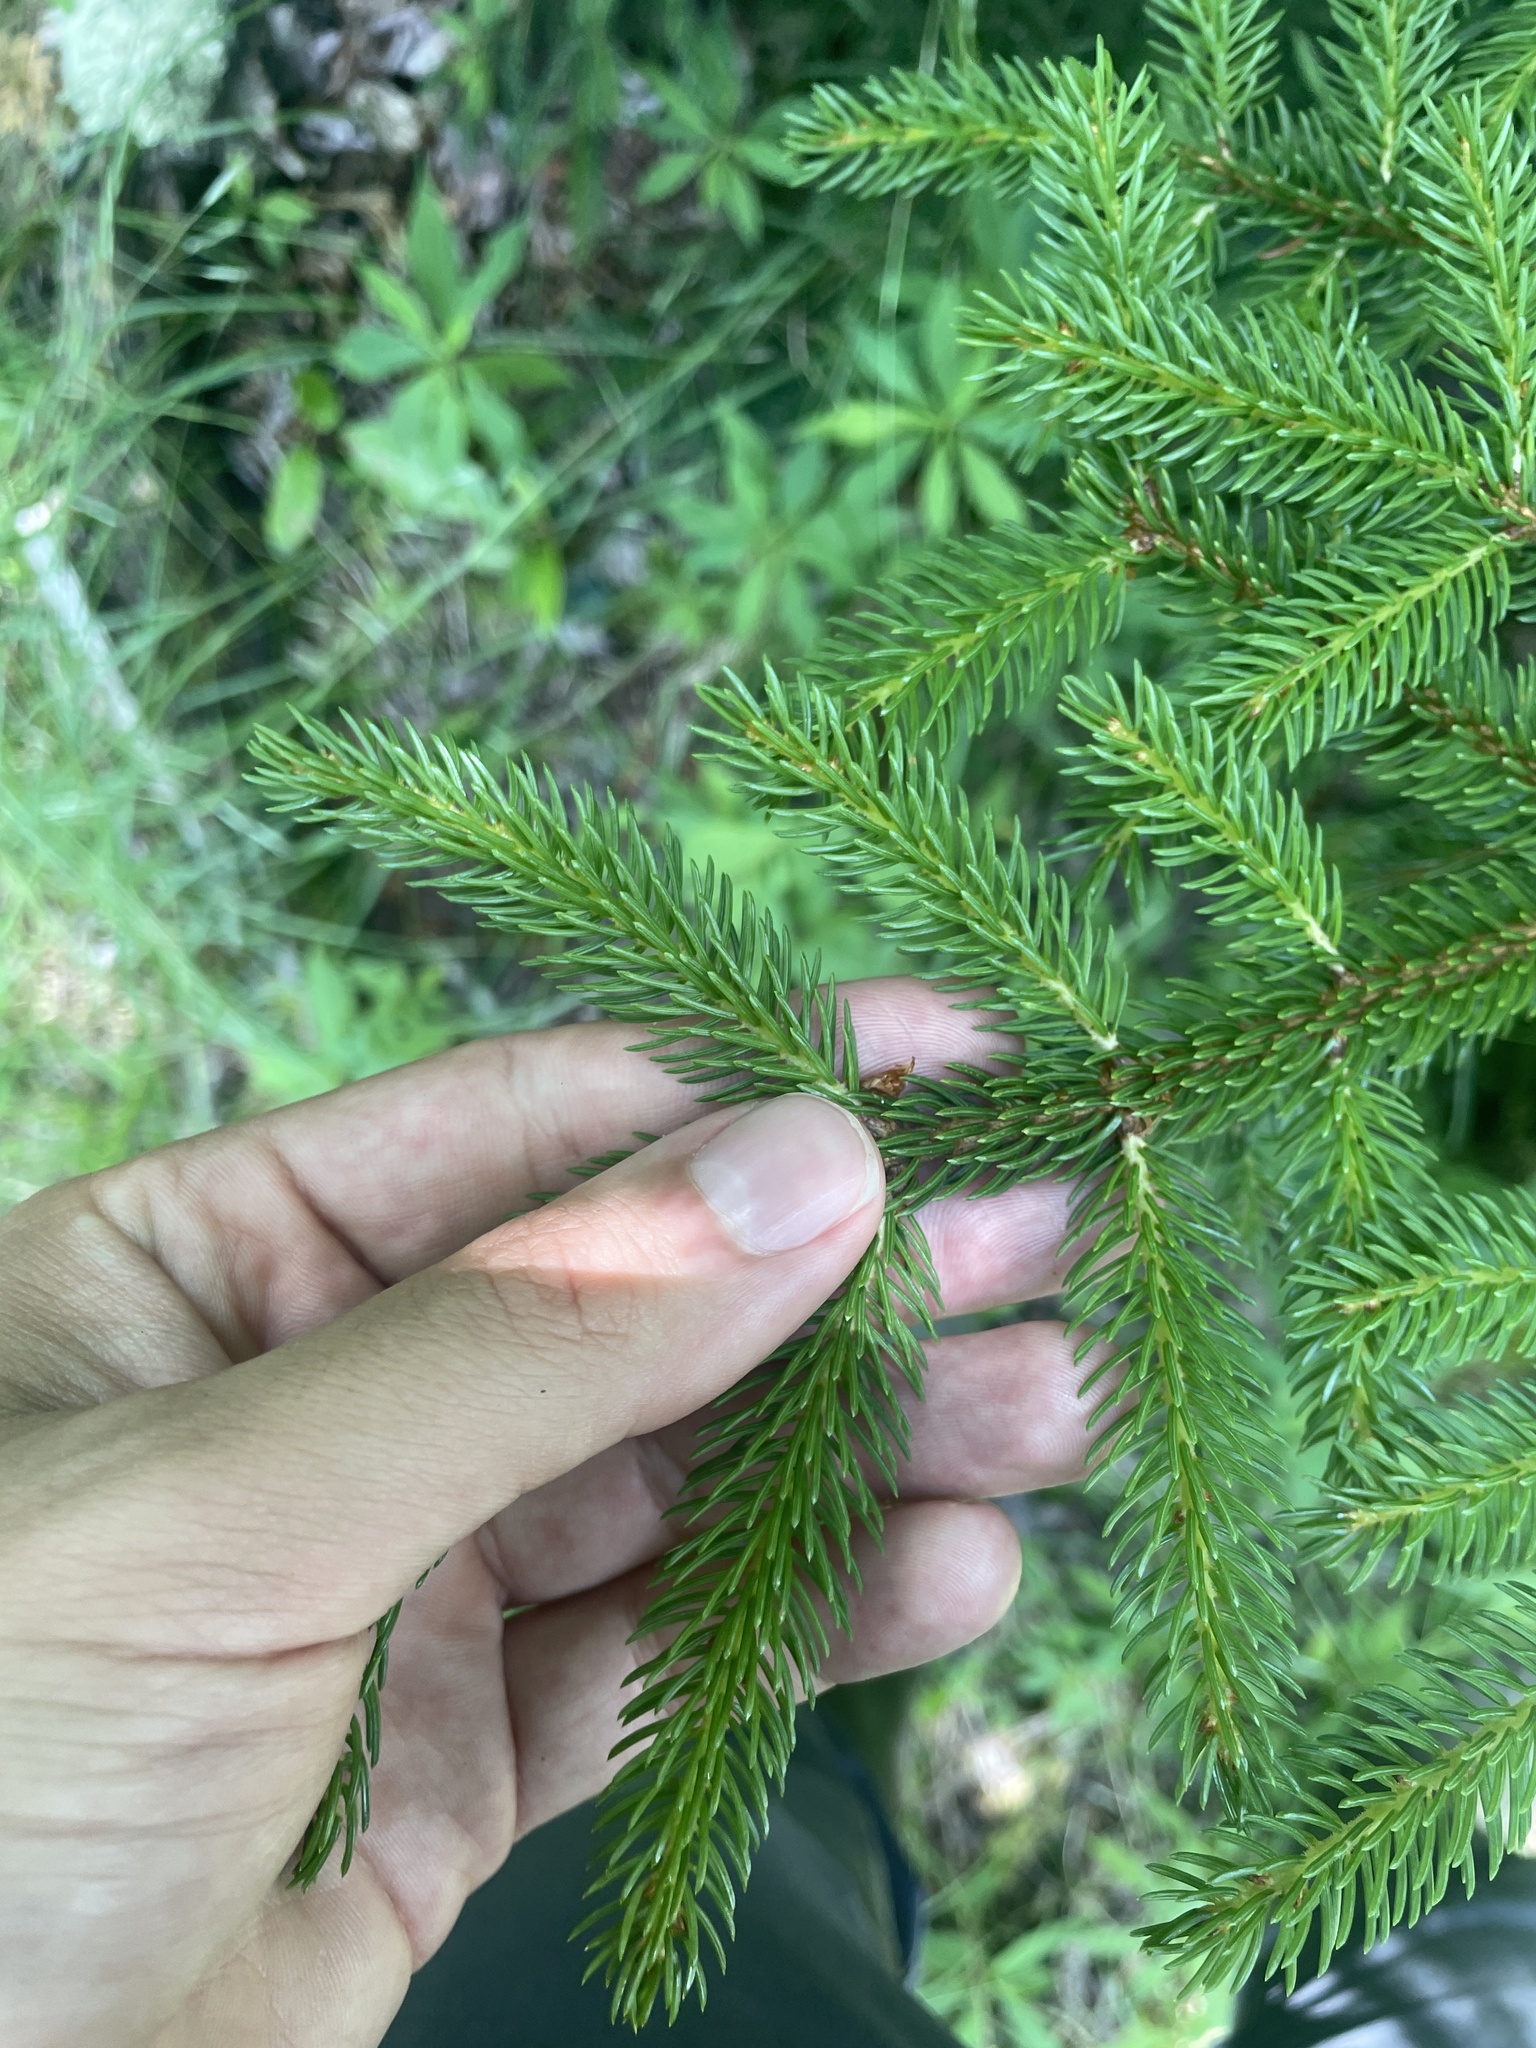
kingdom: Plantae
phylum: Tracheophyta
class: Pinopsida
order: Pinales
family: Pinaceae
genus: Picea
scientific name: Picea rubens
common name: Red spruce
